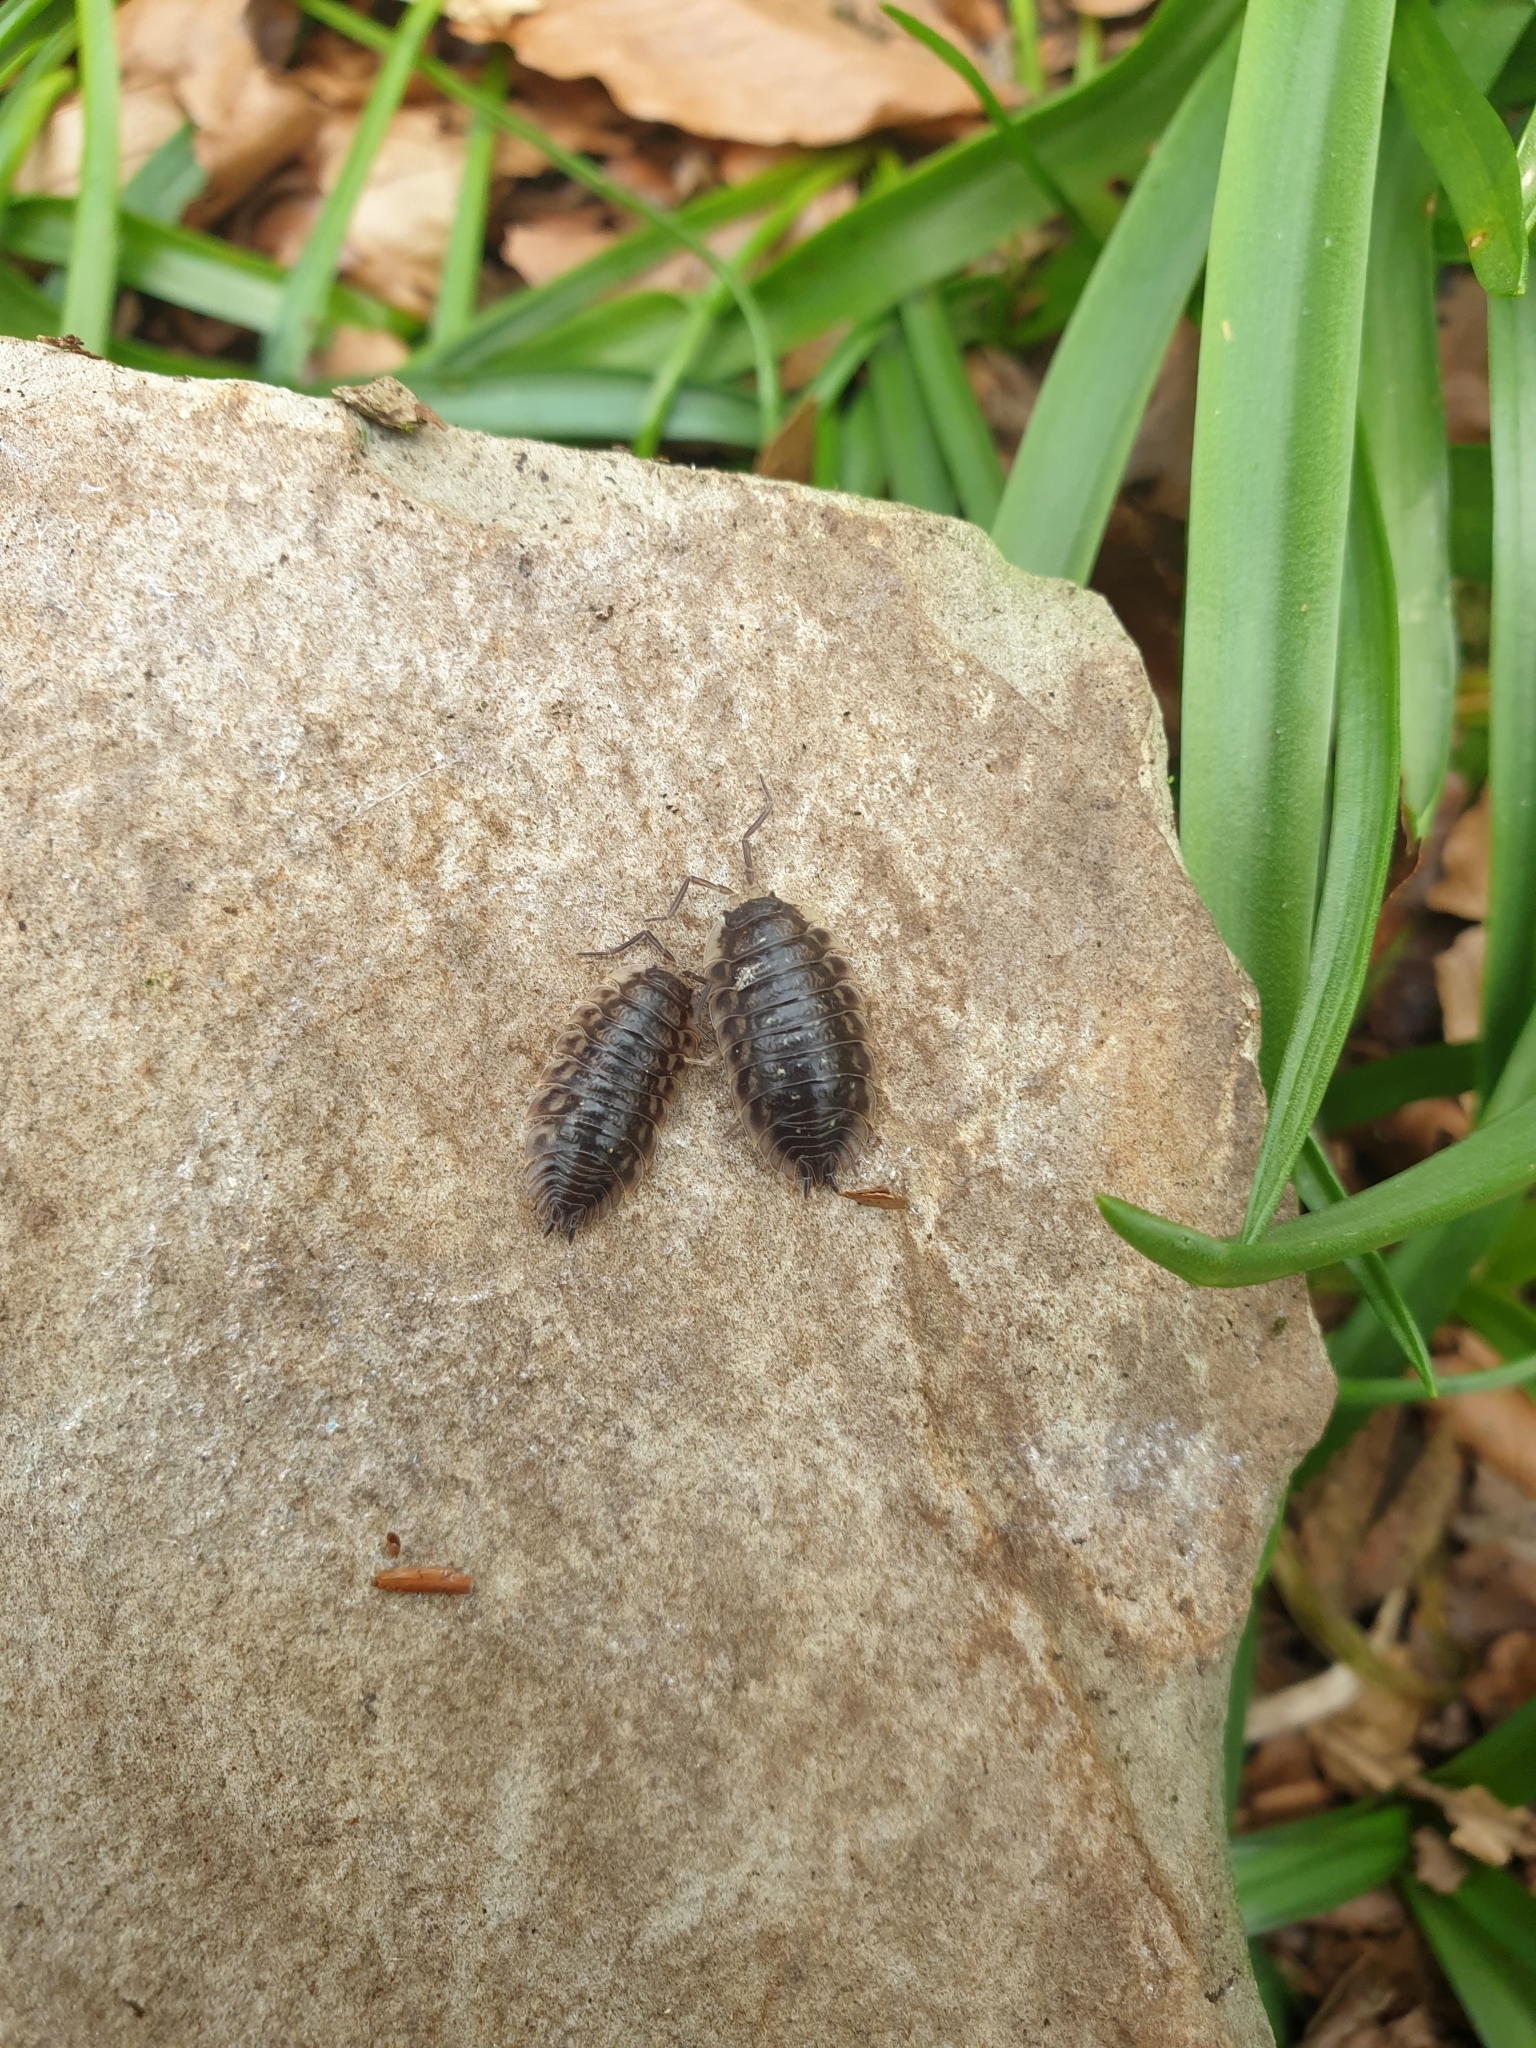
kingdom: Animalia
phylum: Arthropoda
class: Malacostraca
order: Isopoda
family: Oniscidae
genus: Oniscus
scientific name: Oniscus asellus
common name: Common shiny woodlouse
